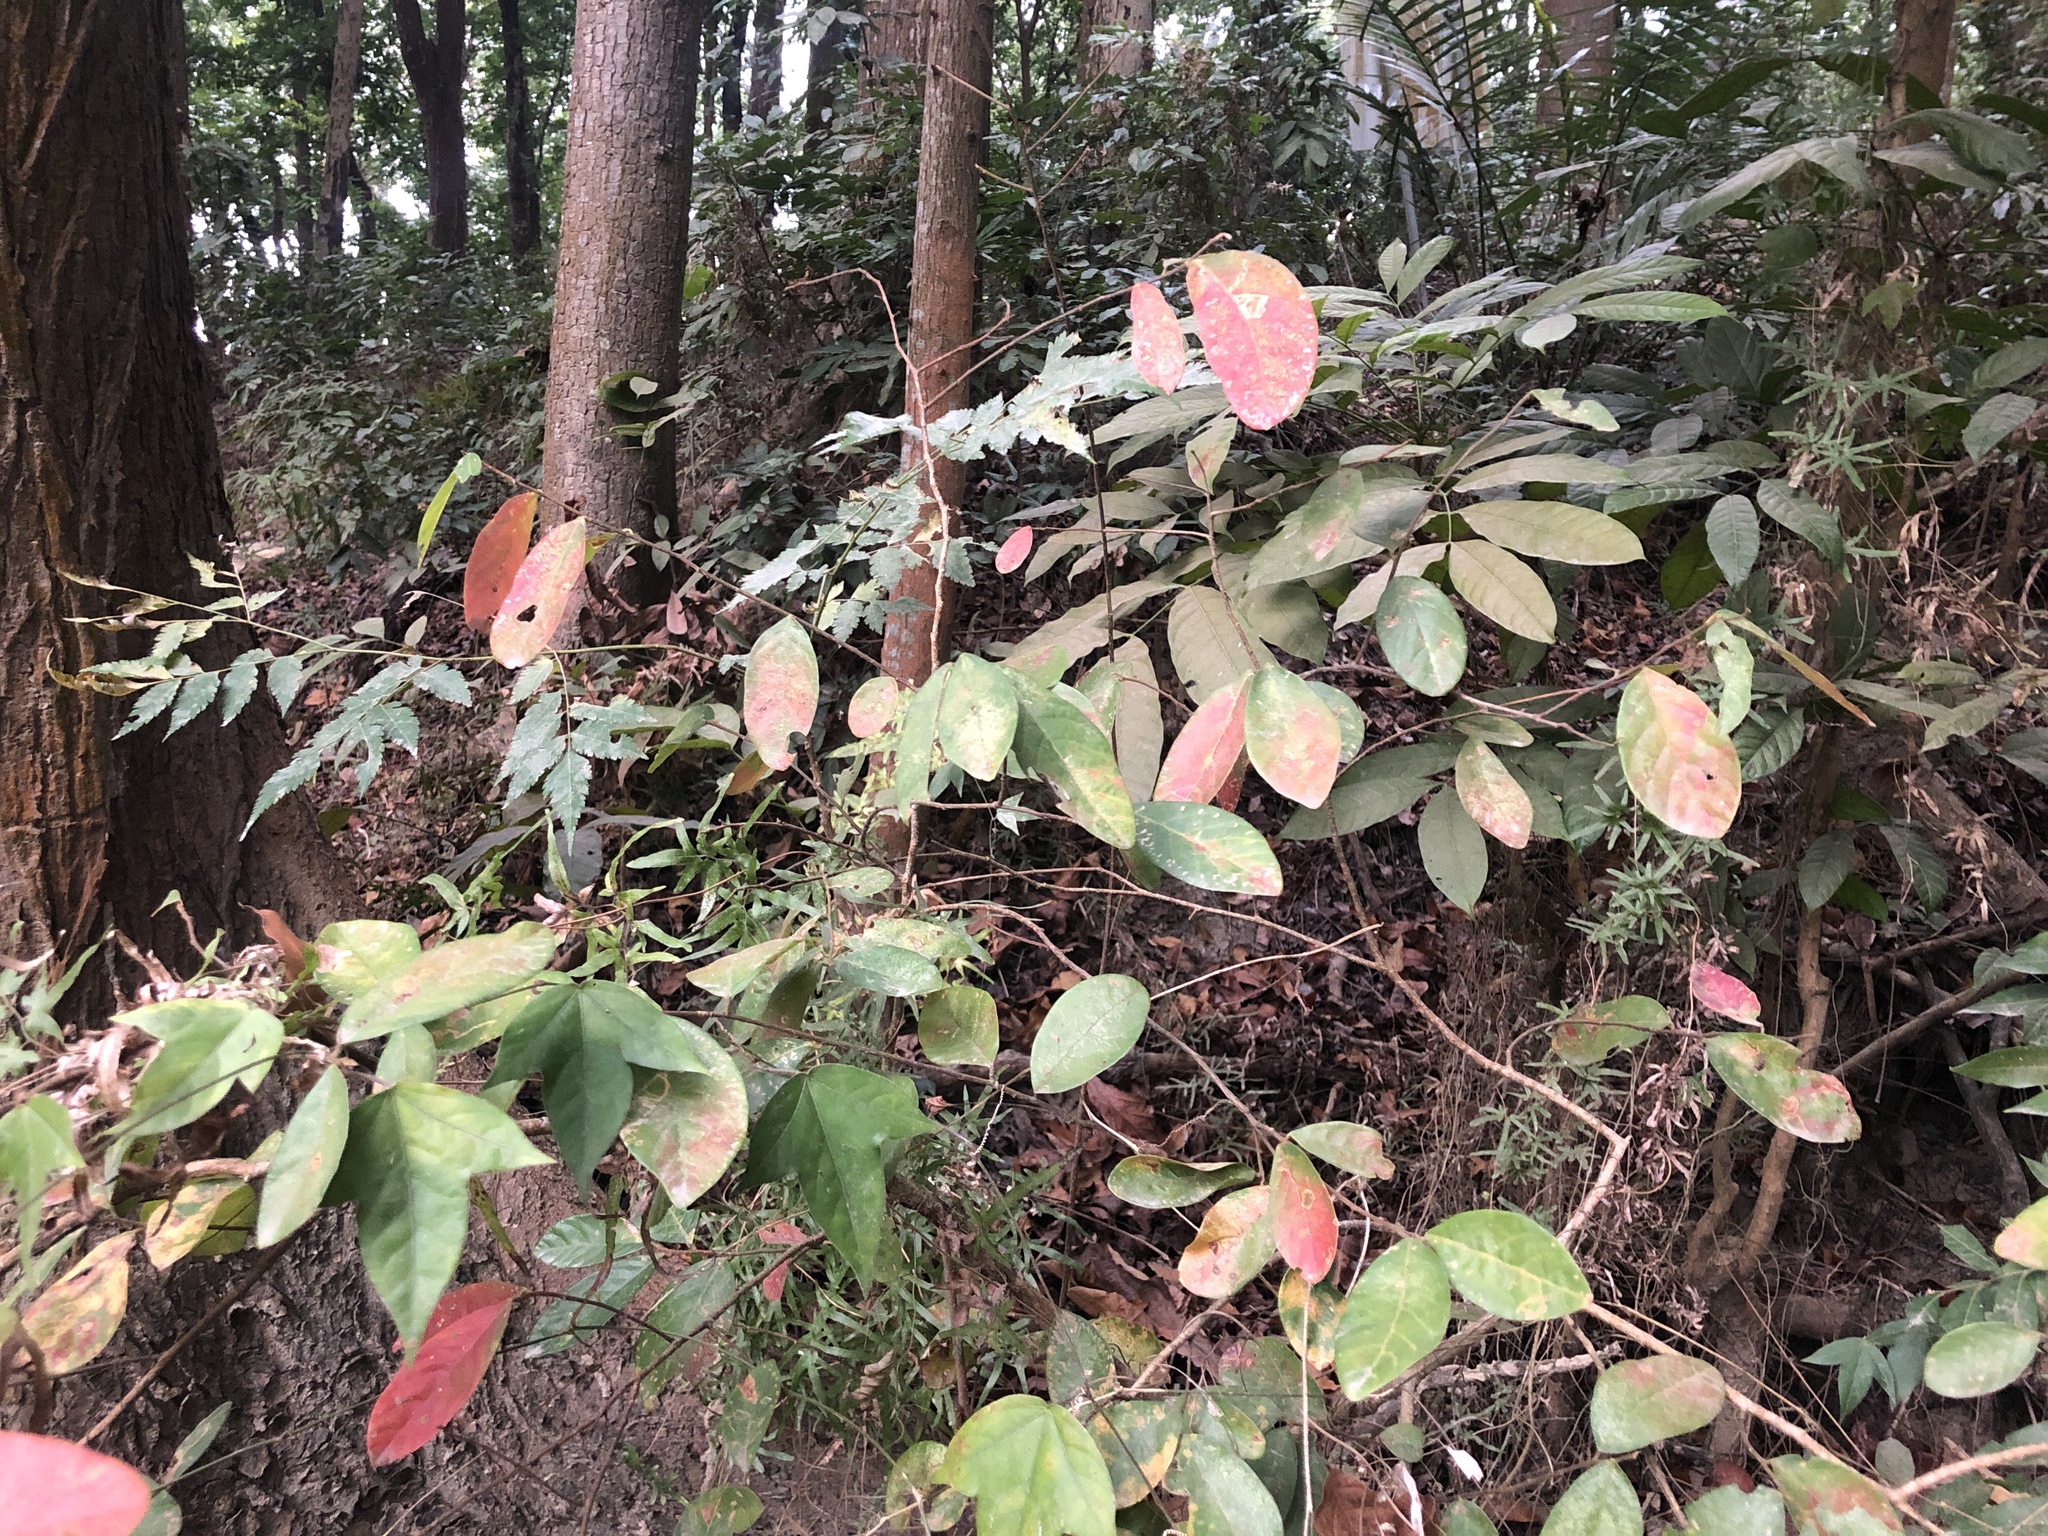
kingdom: Plantae
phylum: Tracheophyta
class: Magnoliopsida
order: Malpighiales
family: Phyllanthaceae
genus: Bridelia
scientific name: Bridelia tomentosa
